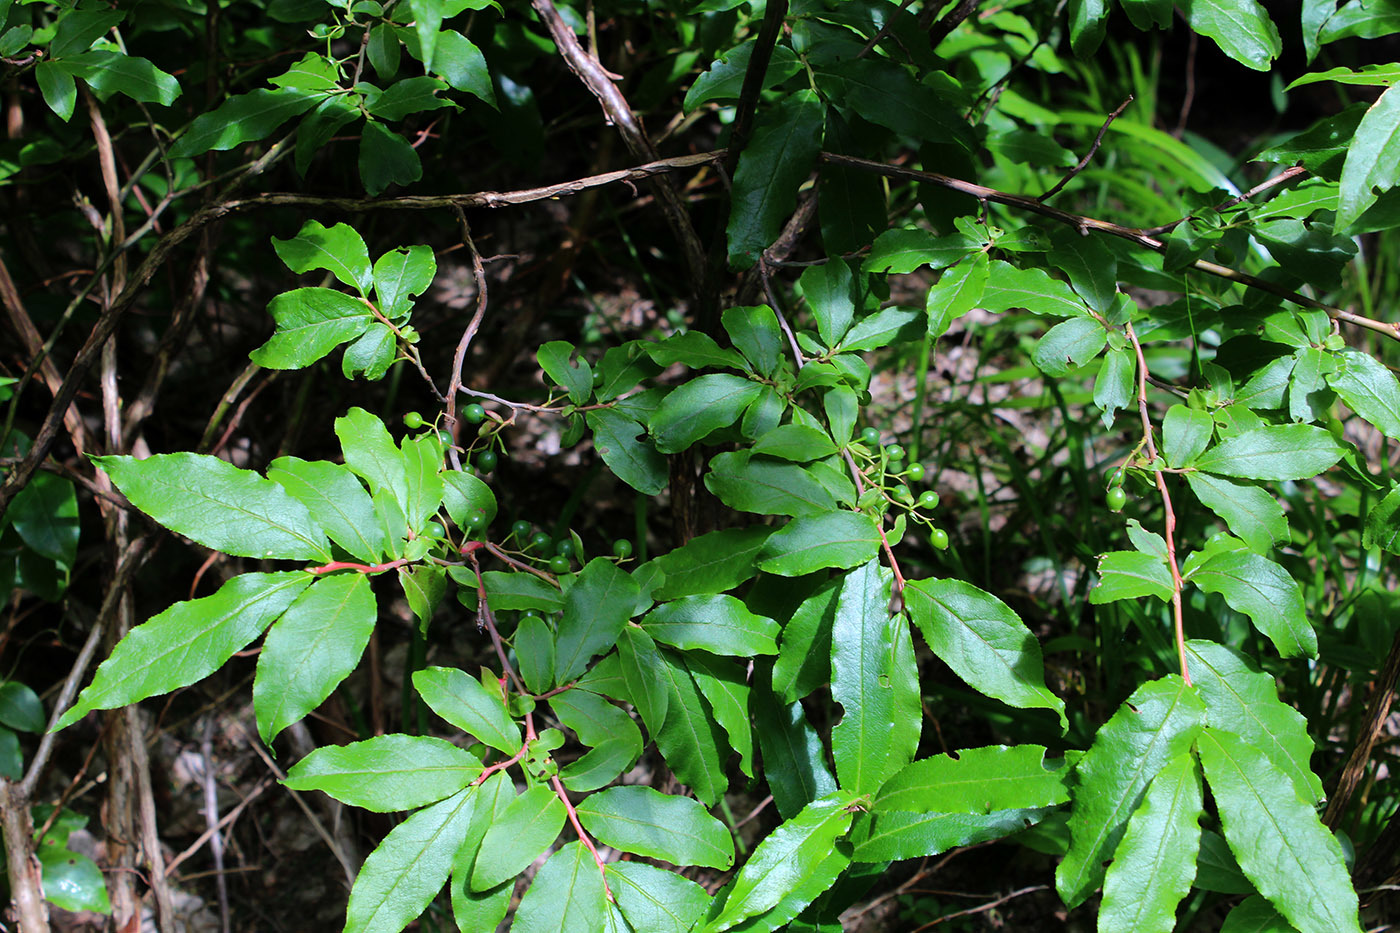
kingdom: Plantae
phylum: Tracheophyta
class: Magnoliopsida
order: Ericales
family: Ericaceae
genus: Vaccinium
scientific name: Vaccinium arctostaphylos
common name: Caucasian whortleberry
